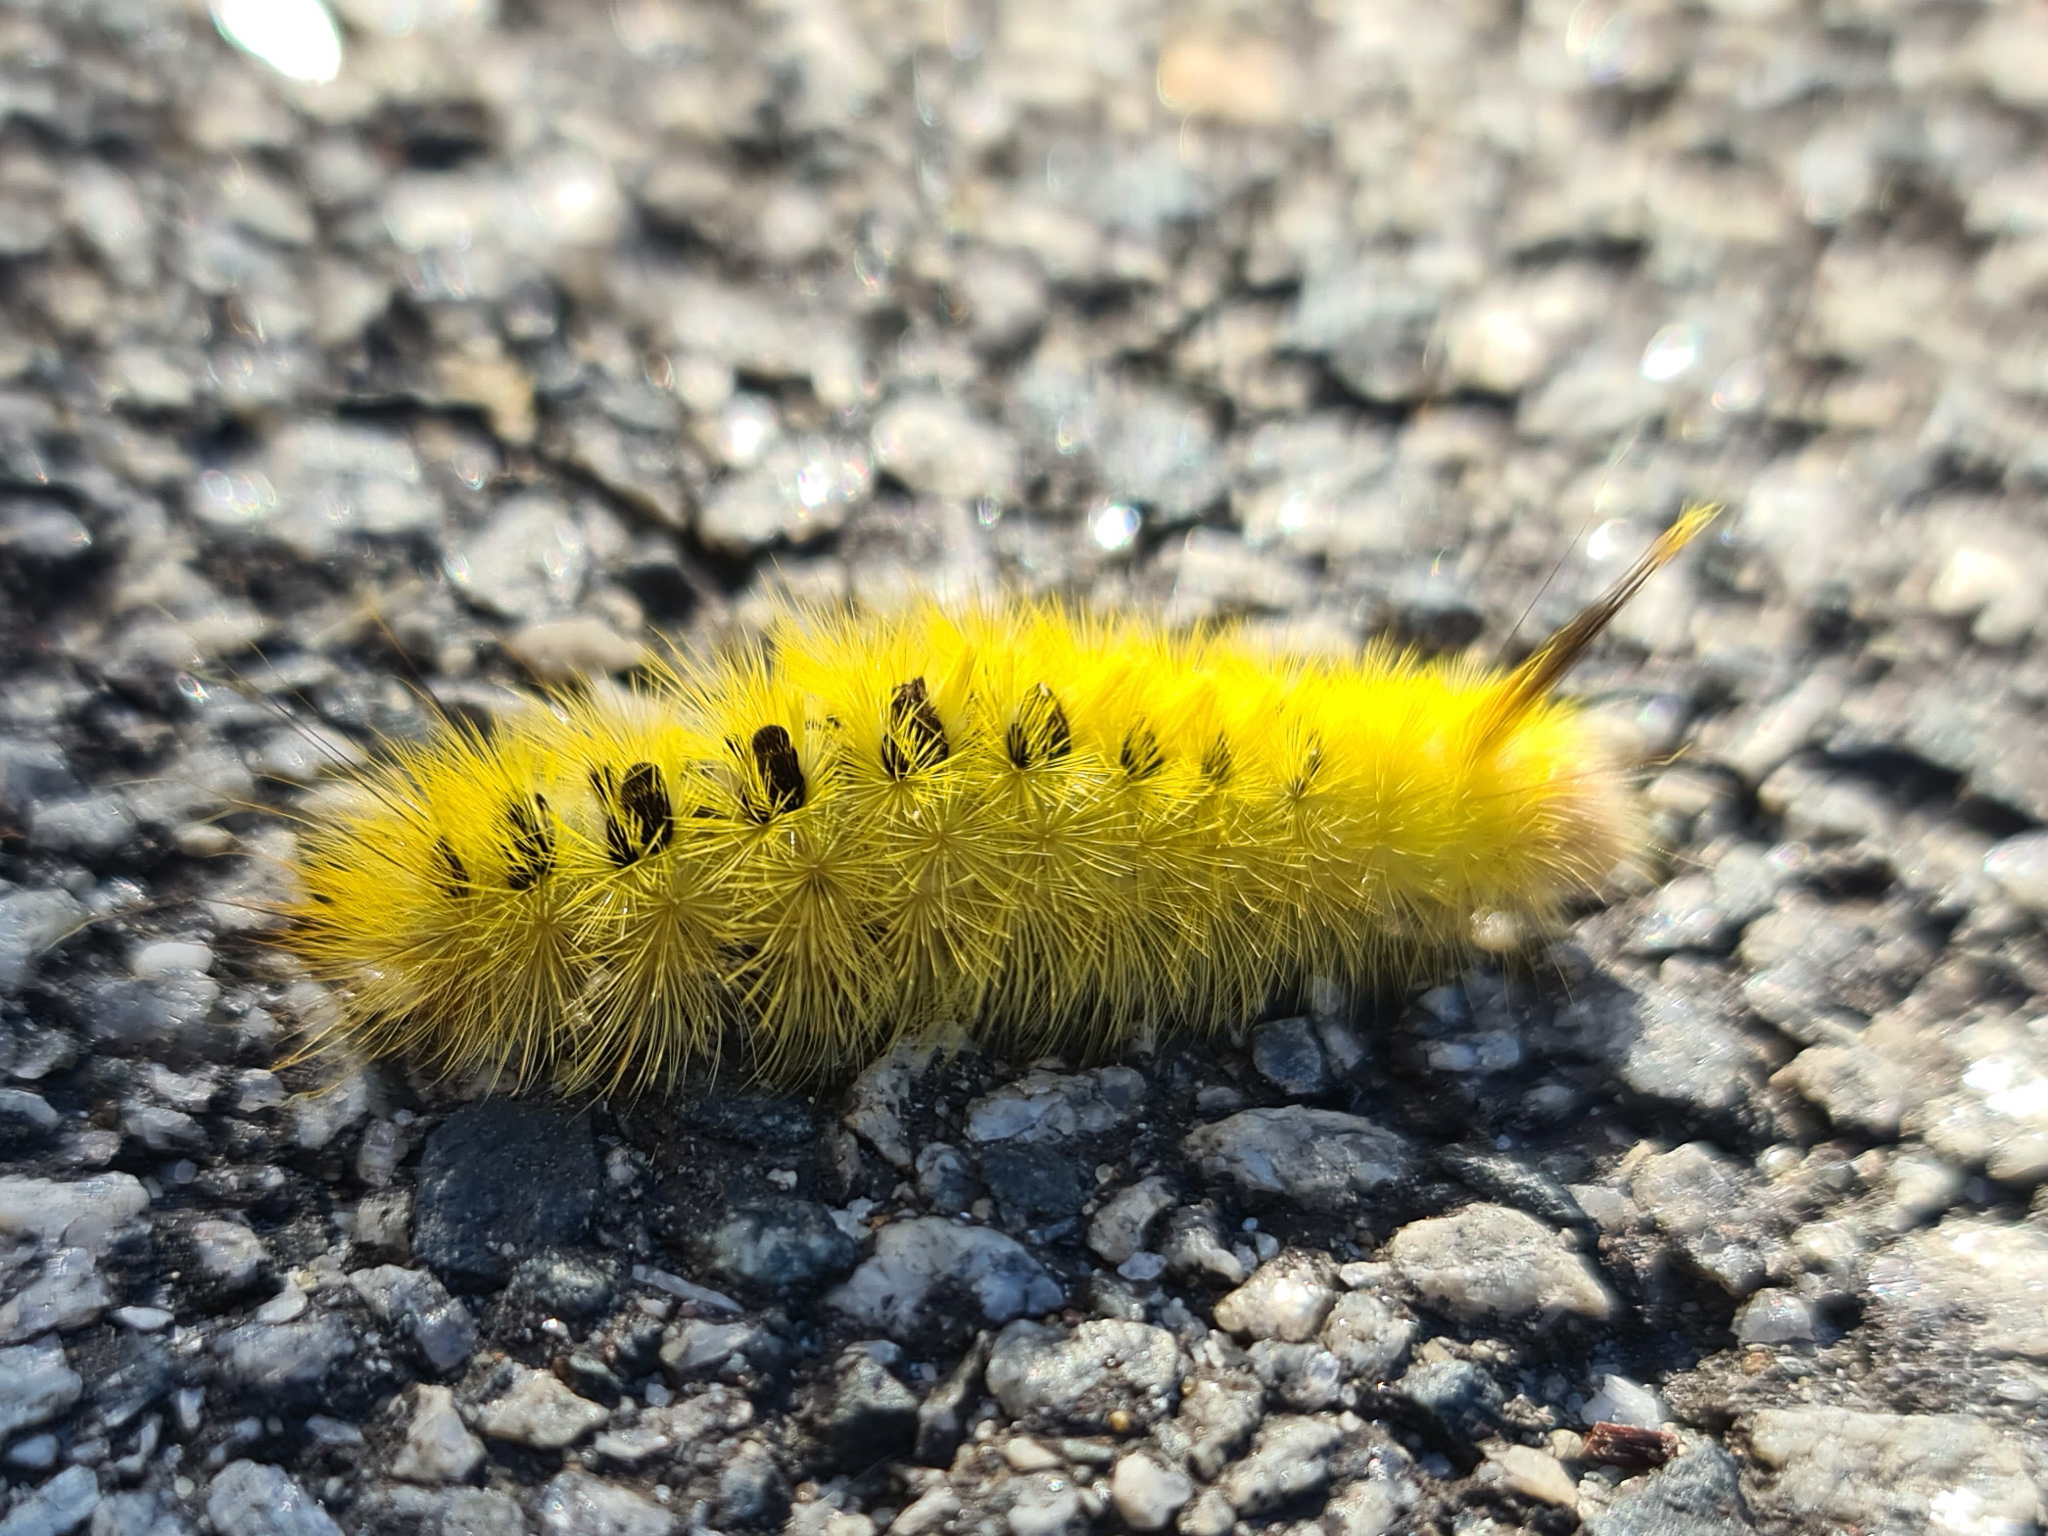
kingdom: Animalia
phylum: Arthropoda
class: Insecta
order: Lepidoptera
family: Notodontidae
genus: Trichiocercus
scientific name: Trichiocercus sparshalli
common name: Long-tailed satin
